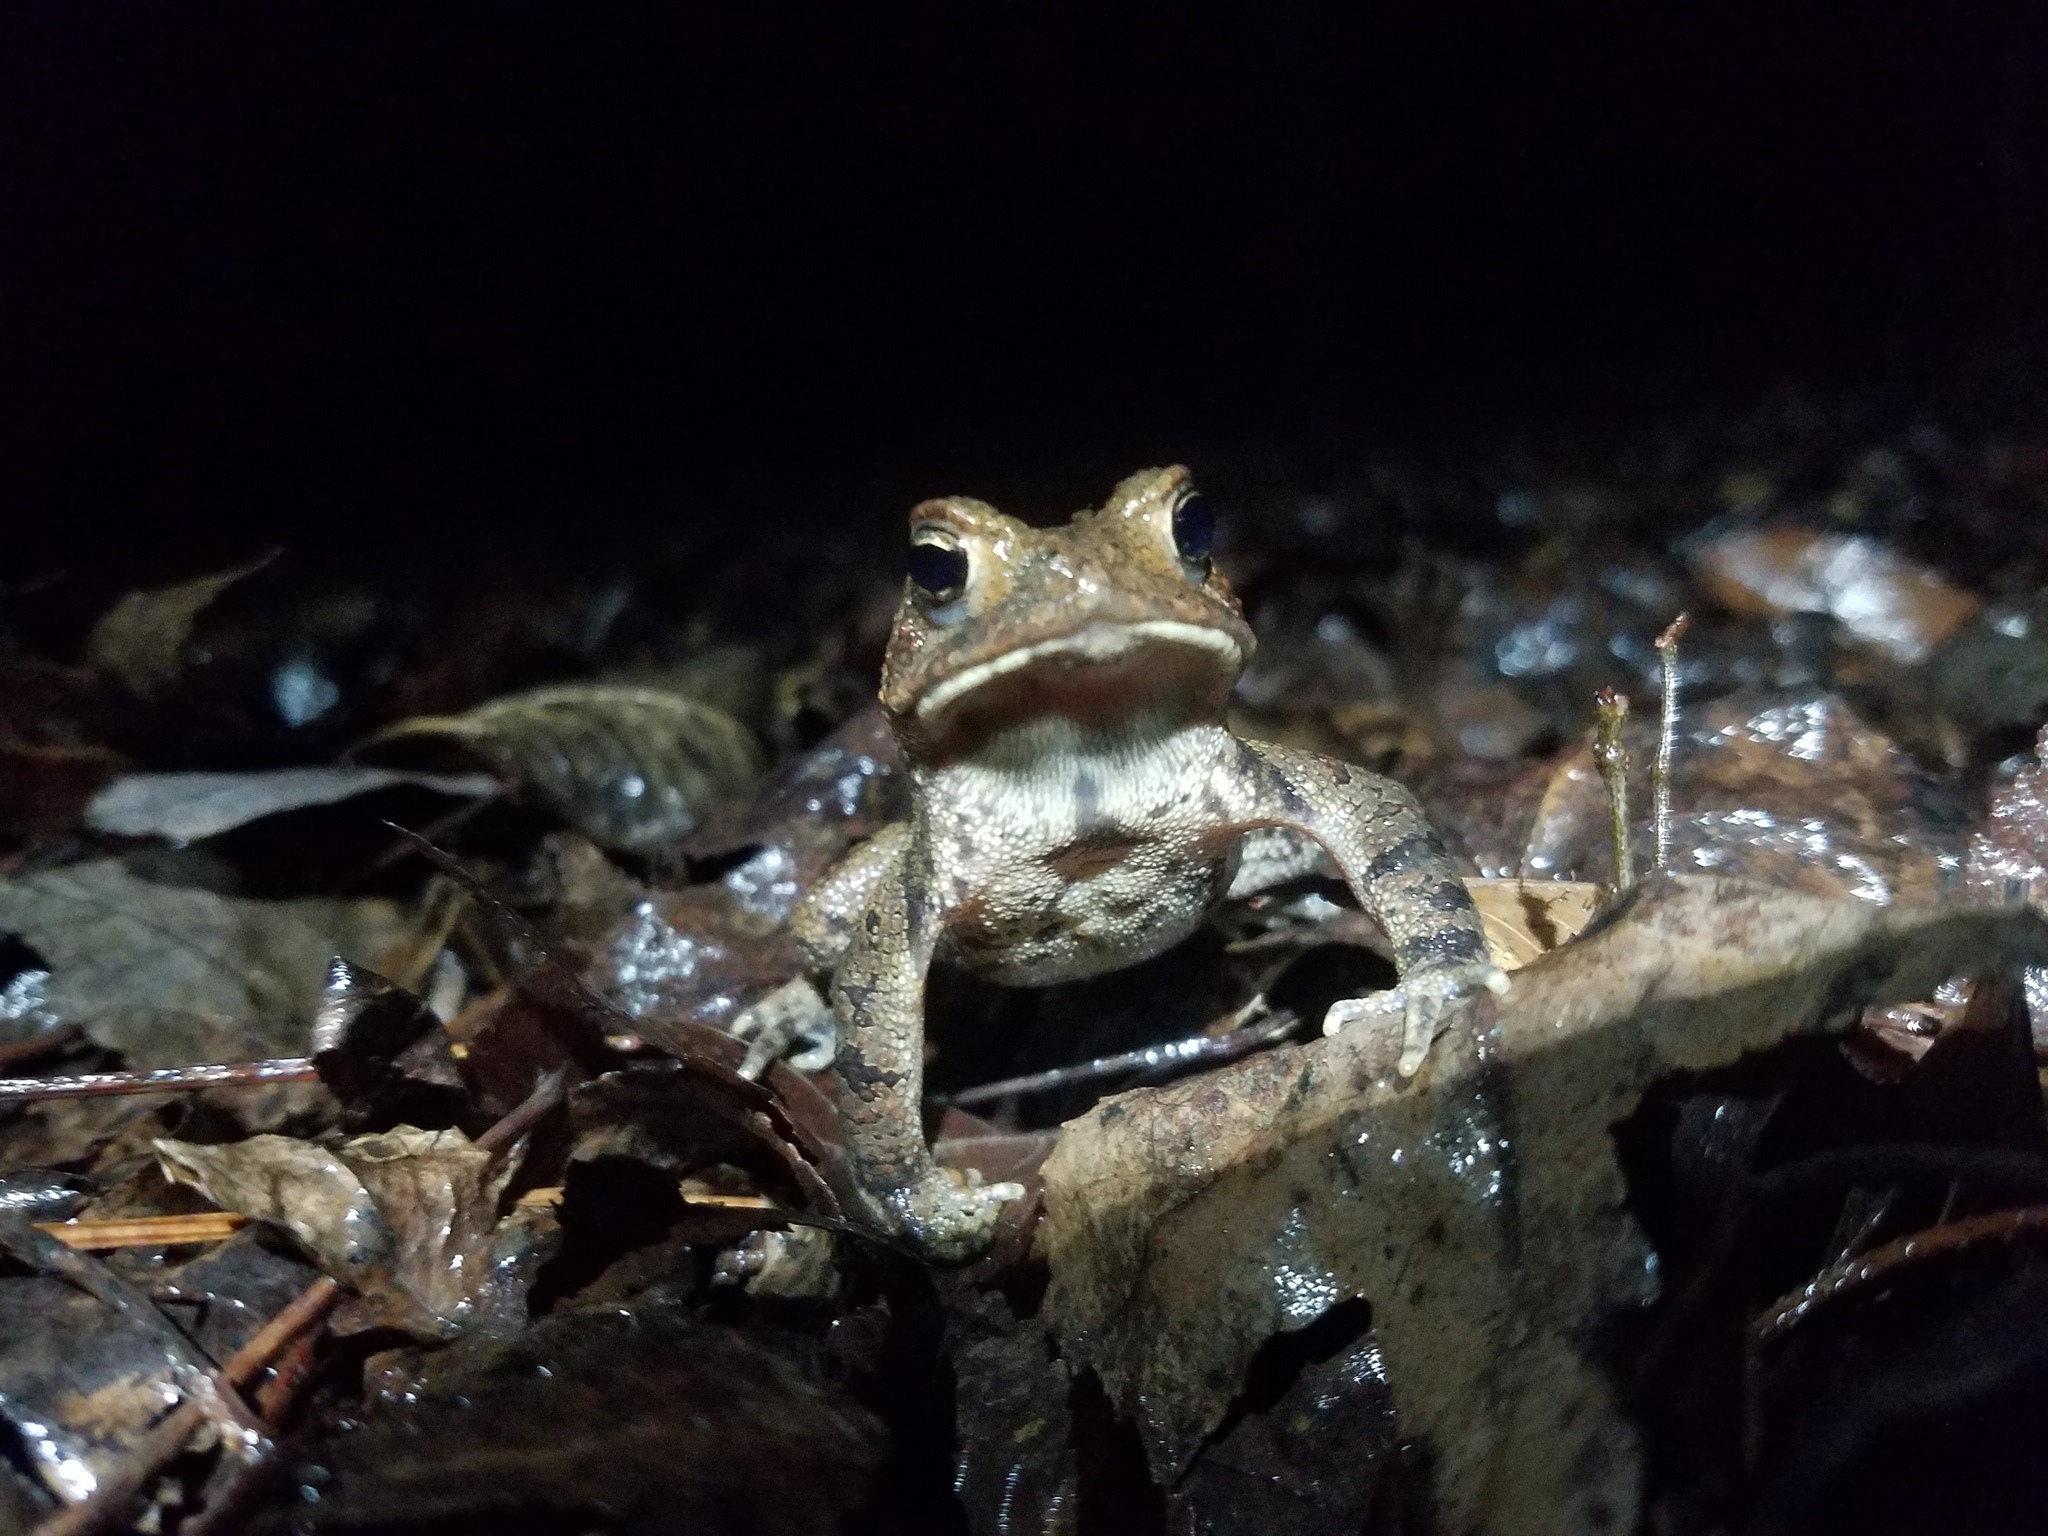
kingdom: Animalia
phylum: Chordata
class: Amphibia
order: Anura
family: Bufonidae
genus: Anaxyrus
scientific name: Anaxyrus americanus
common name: American toad
